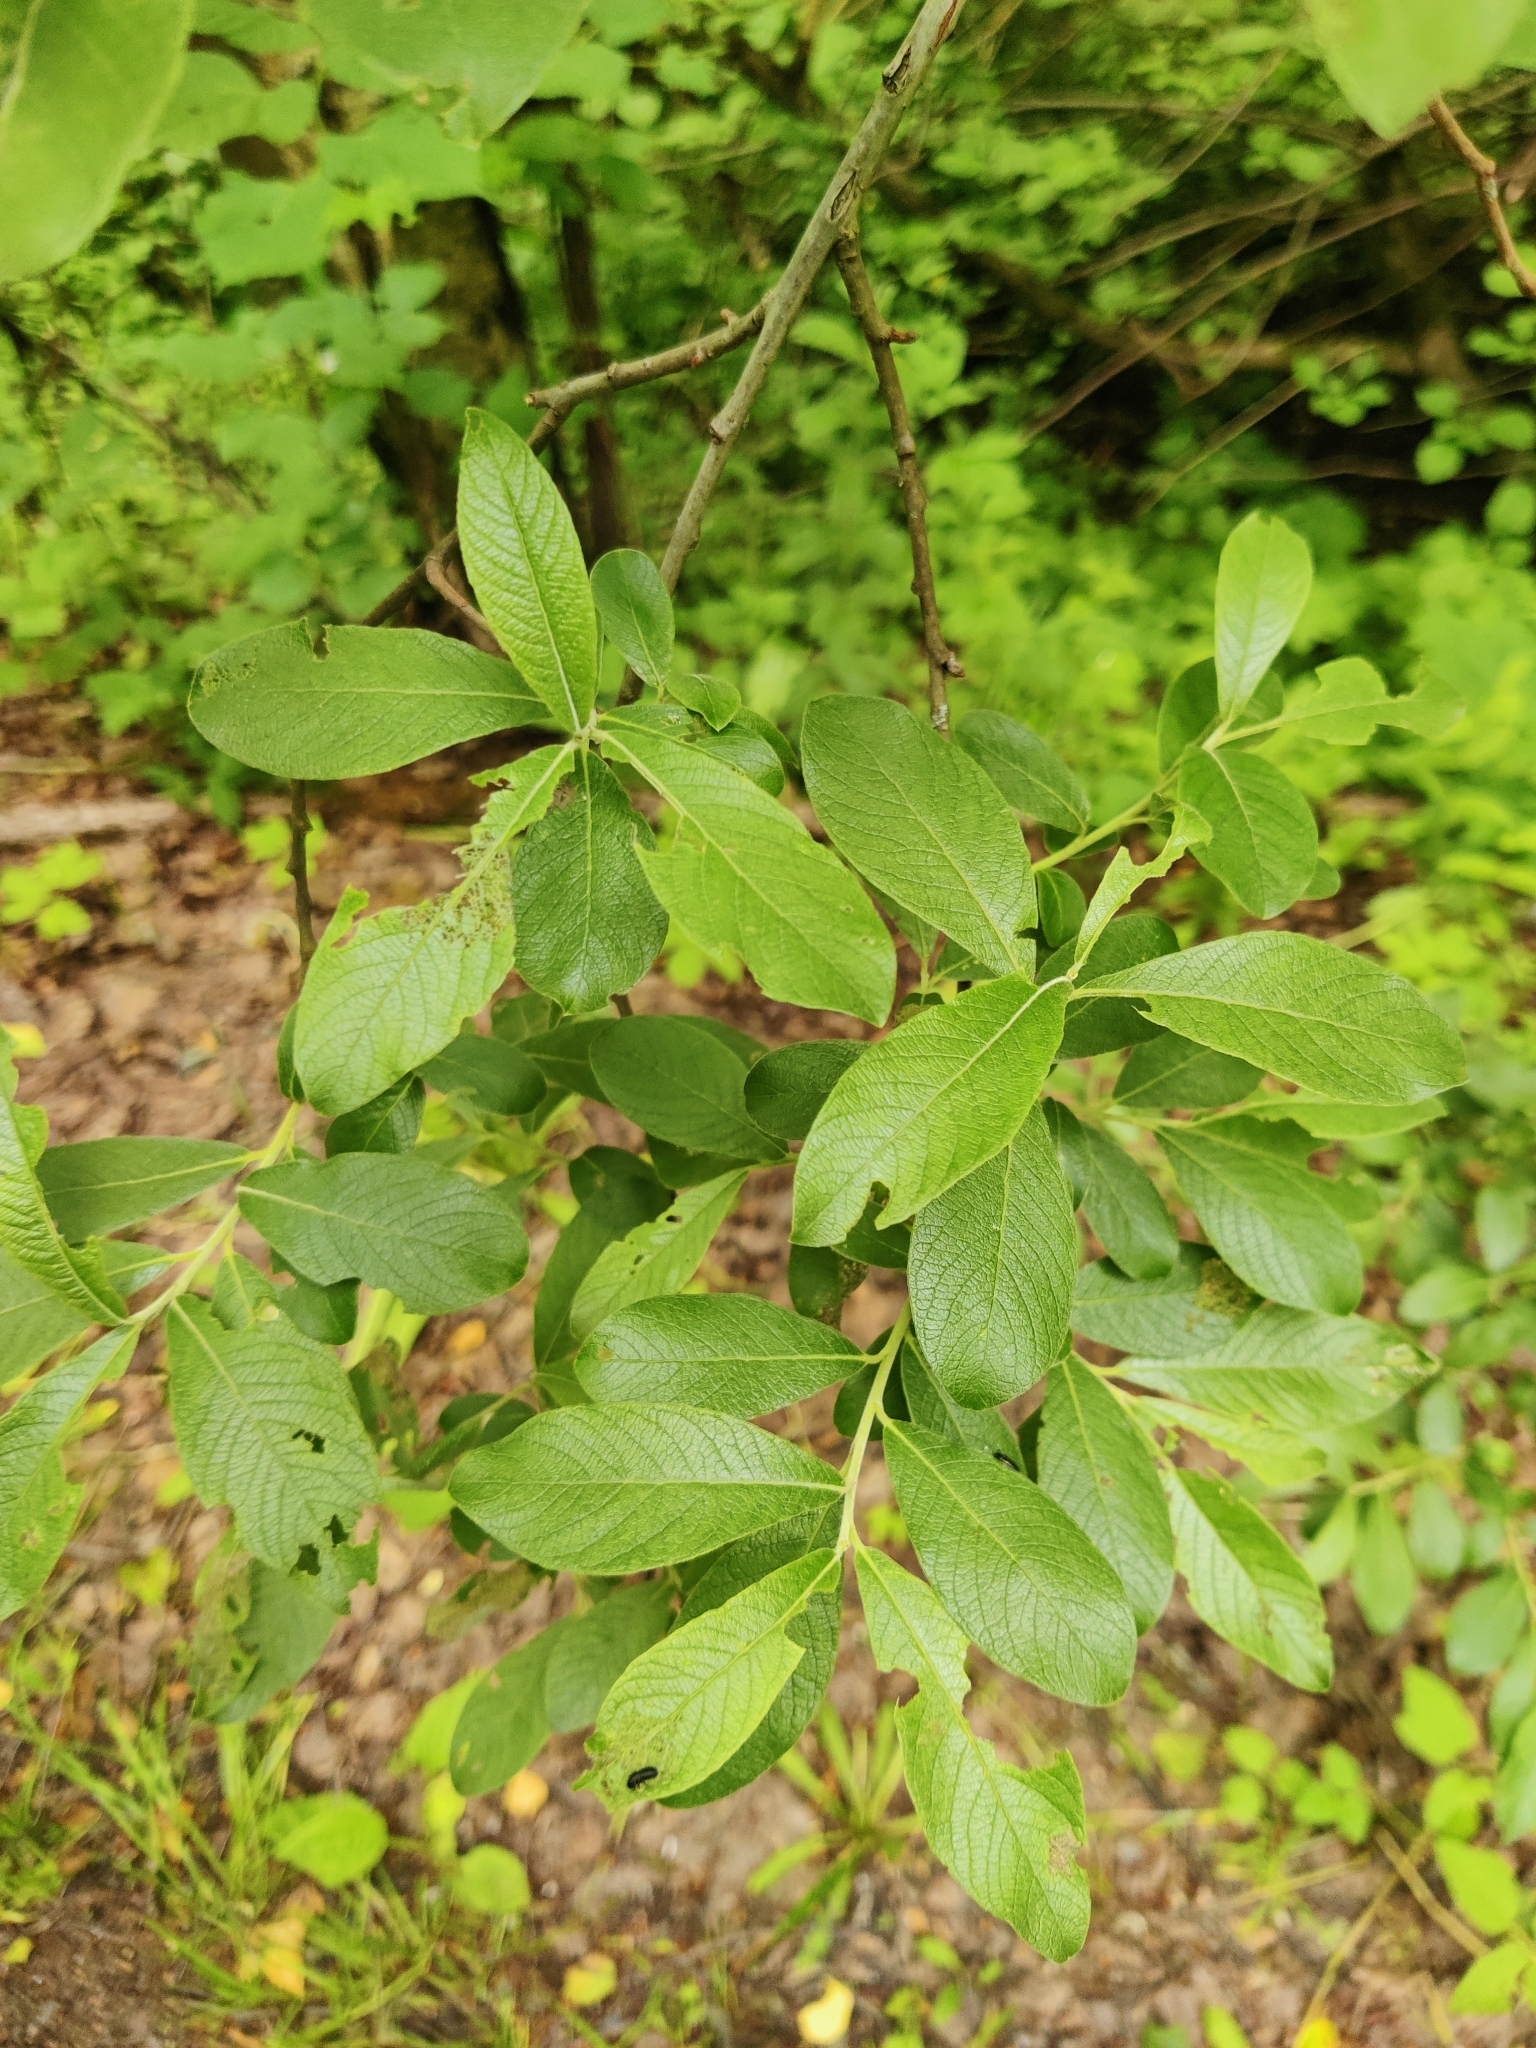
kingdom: Plantae
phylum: Tracheophyta
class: Magnoliopsida
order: Malpighiales
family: Salicaceae
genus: Salix
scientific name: Salix caprea
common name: Goat willow
